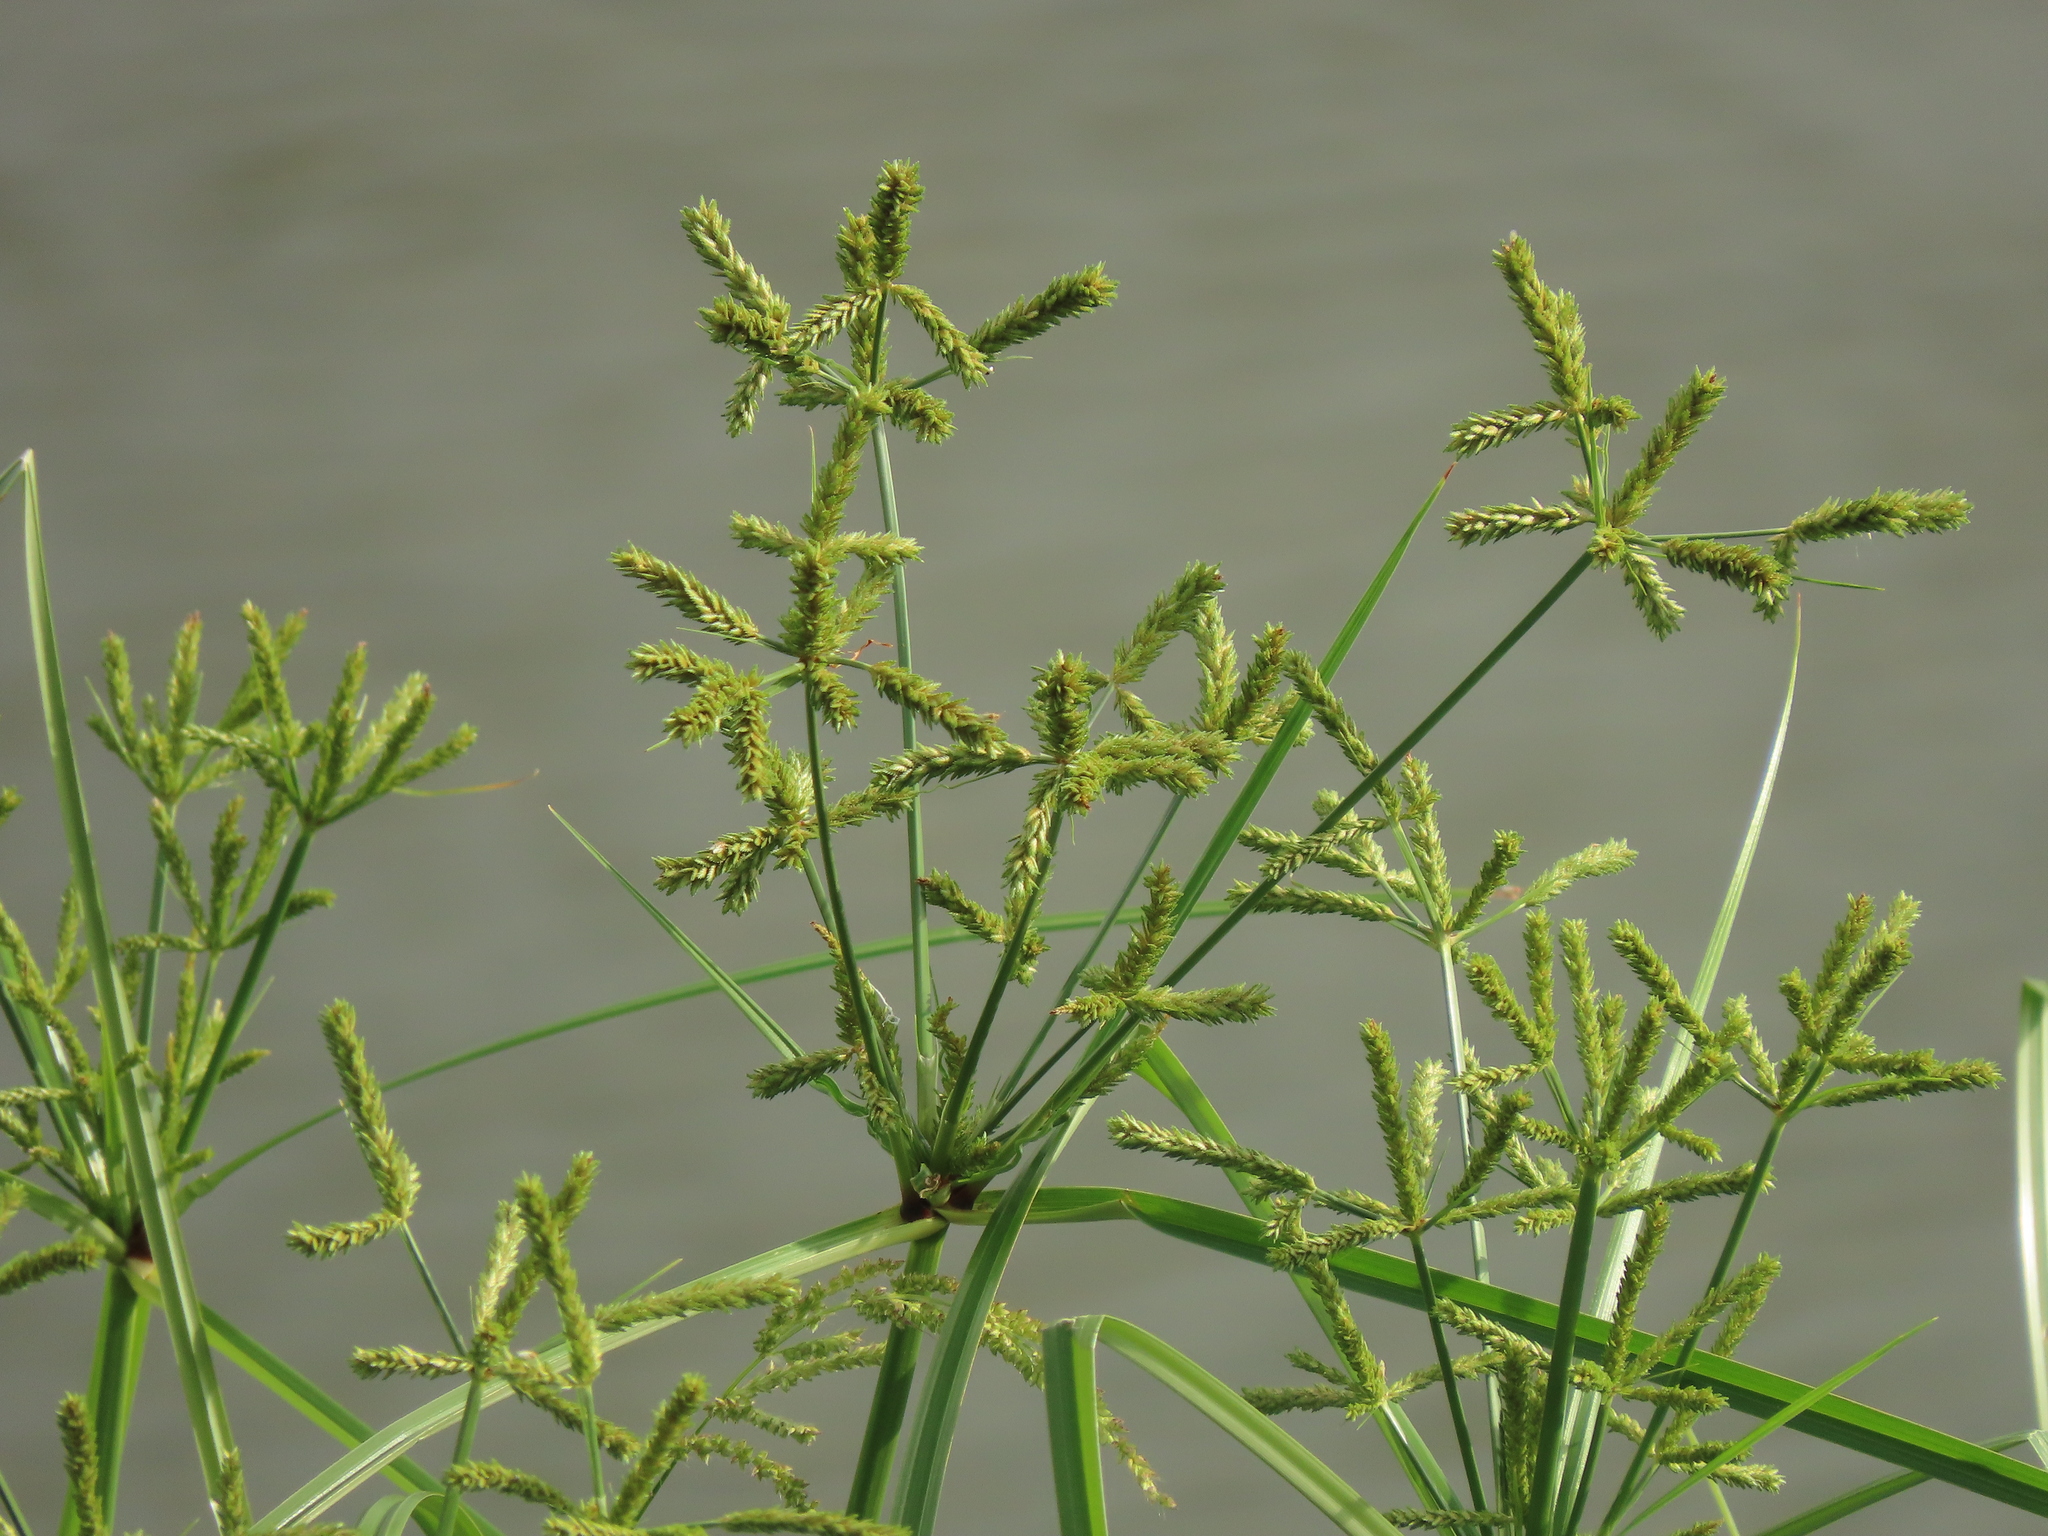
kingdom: Plantae
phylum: Tracheophyta
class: Liliopsida
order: Poales
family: Cyperaceae
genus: Cyperus
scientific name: Cyperus imbricatus
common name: Shingle flatsedge
